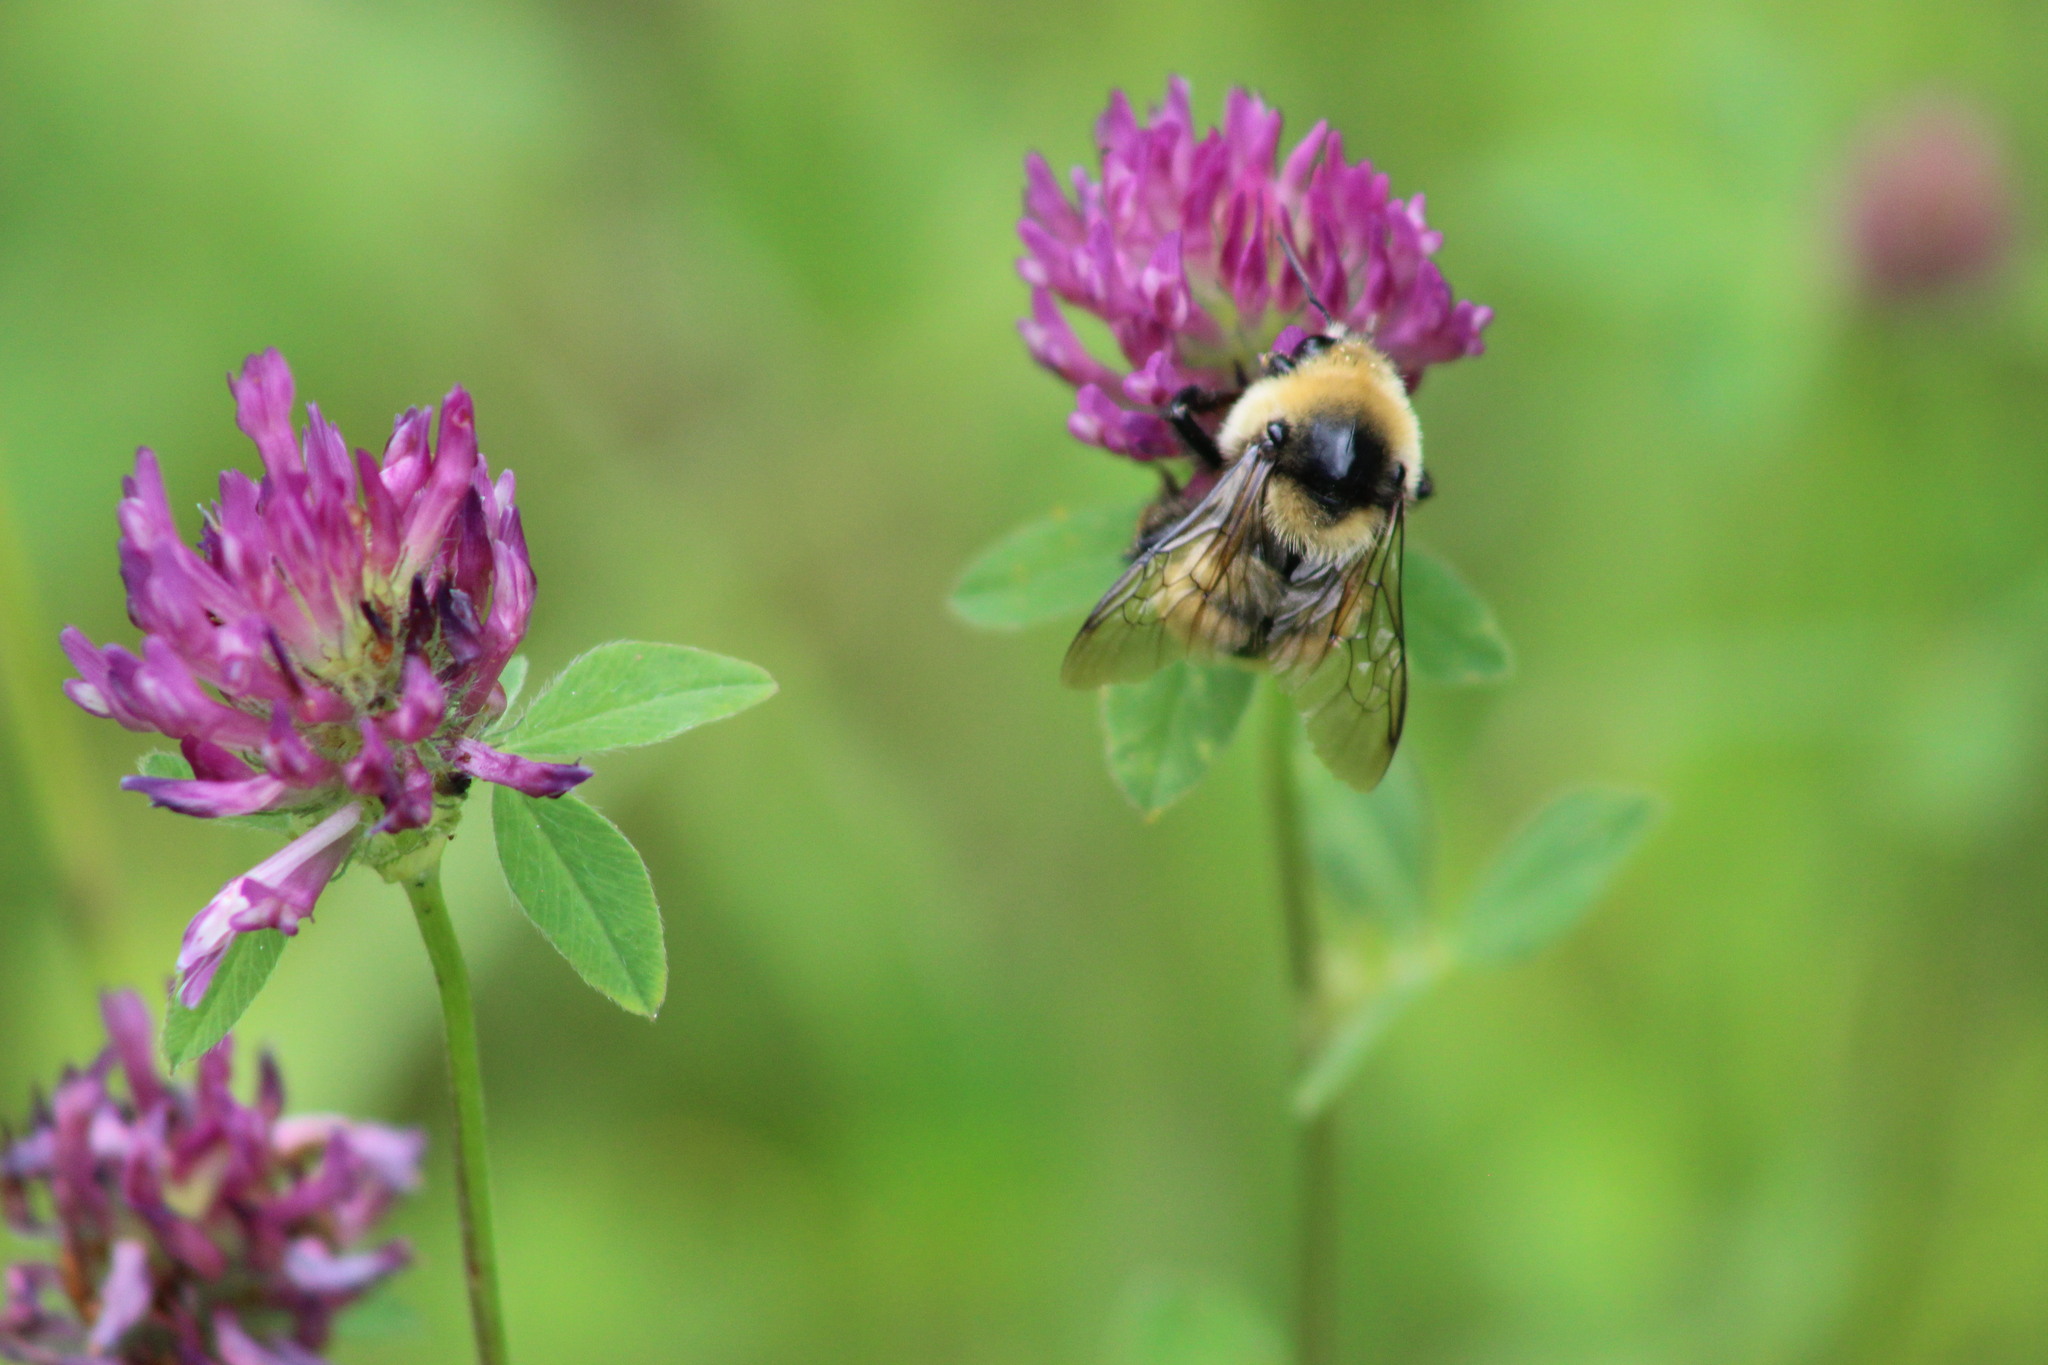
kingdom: Animalia
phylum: Arthropoda
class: Insecta
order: Hymenoptera
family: Apidae
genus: Bombus
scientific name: Bombus distinguendus
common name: Great yellow humble-bee
